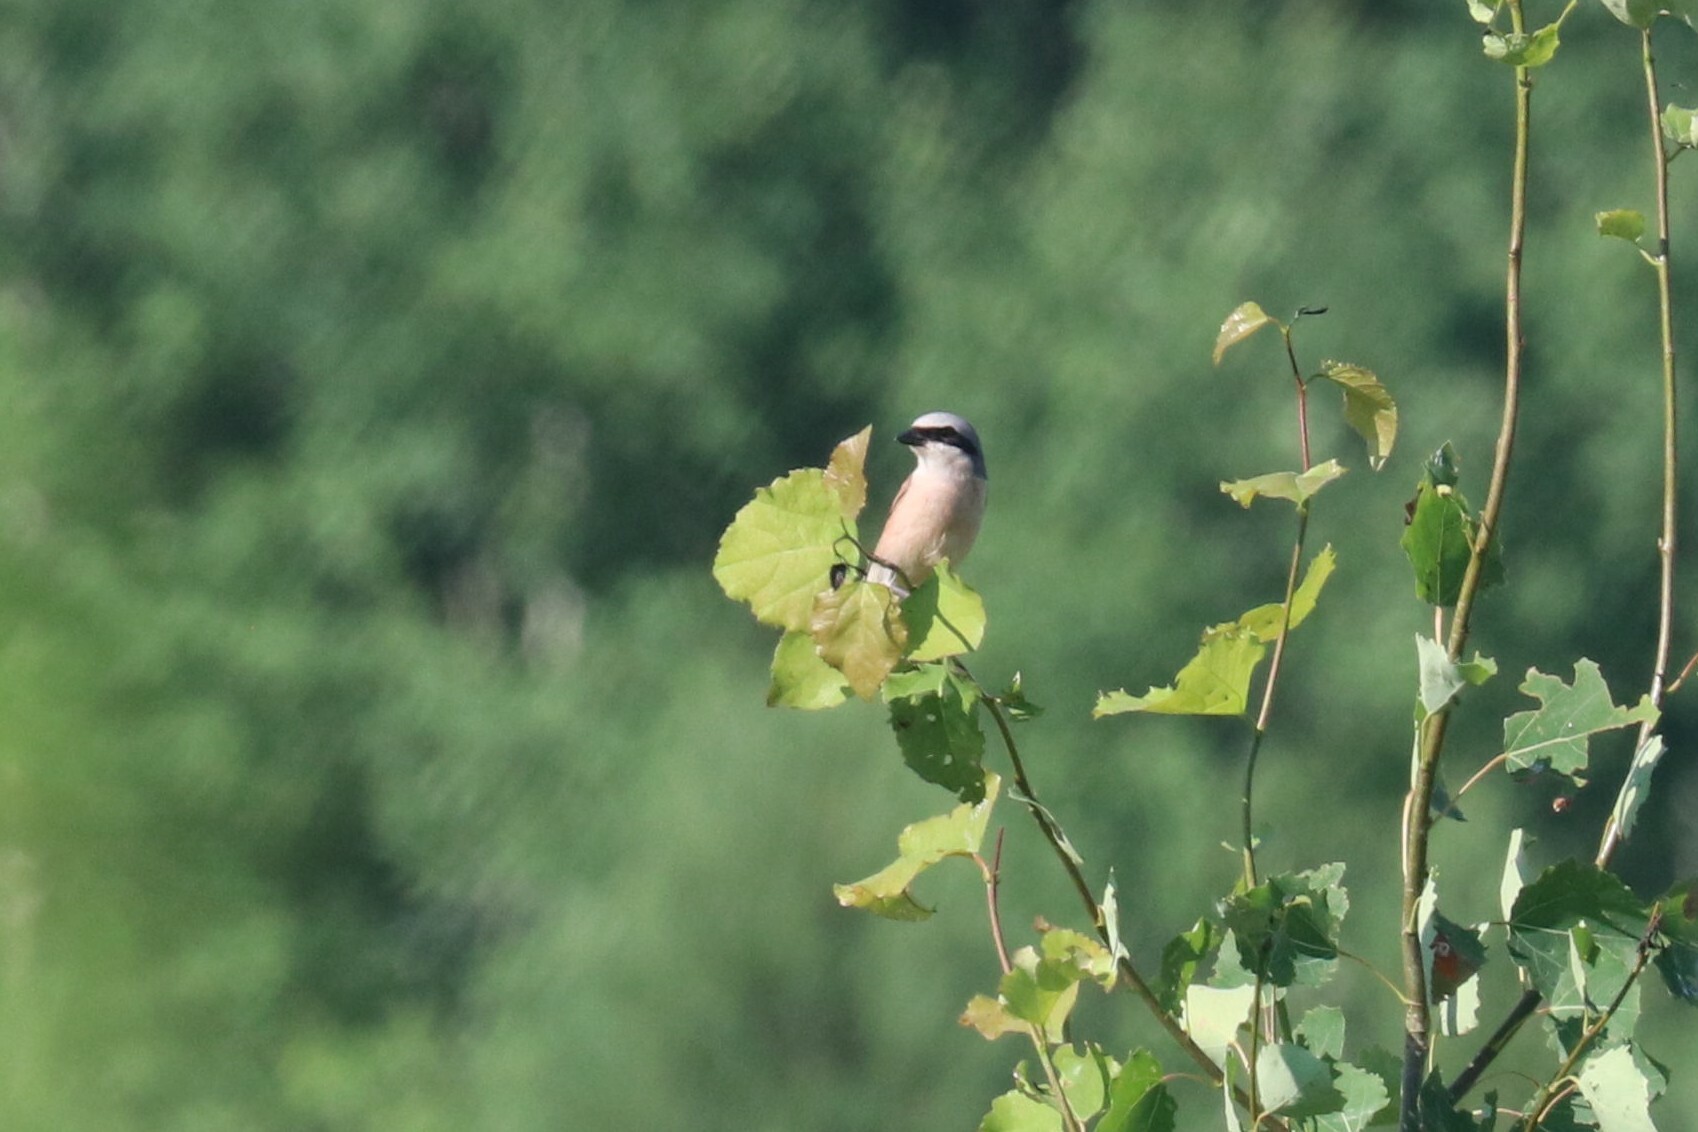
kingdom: Animalia
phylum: Chordata
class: Aves
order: Passeriformes
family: Laniidae
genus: Lanius
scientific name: Lanius collurio
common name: Red-backed shrike
